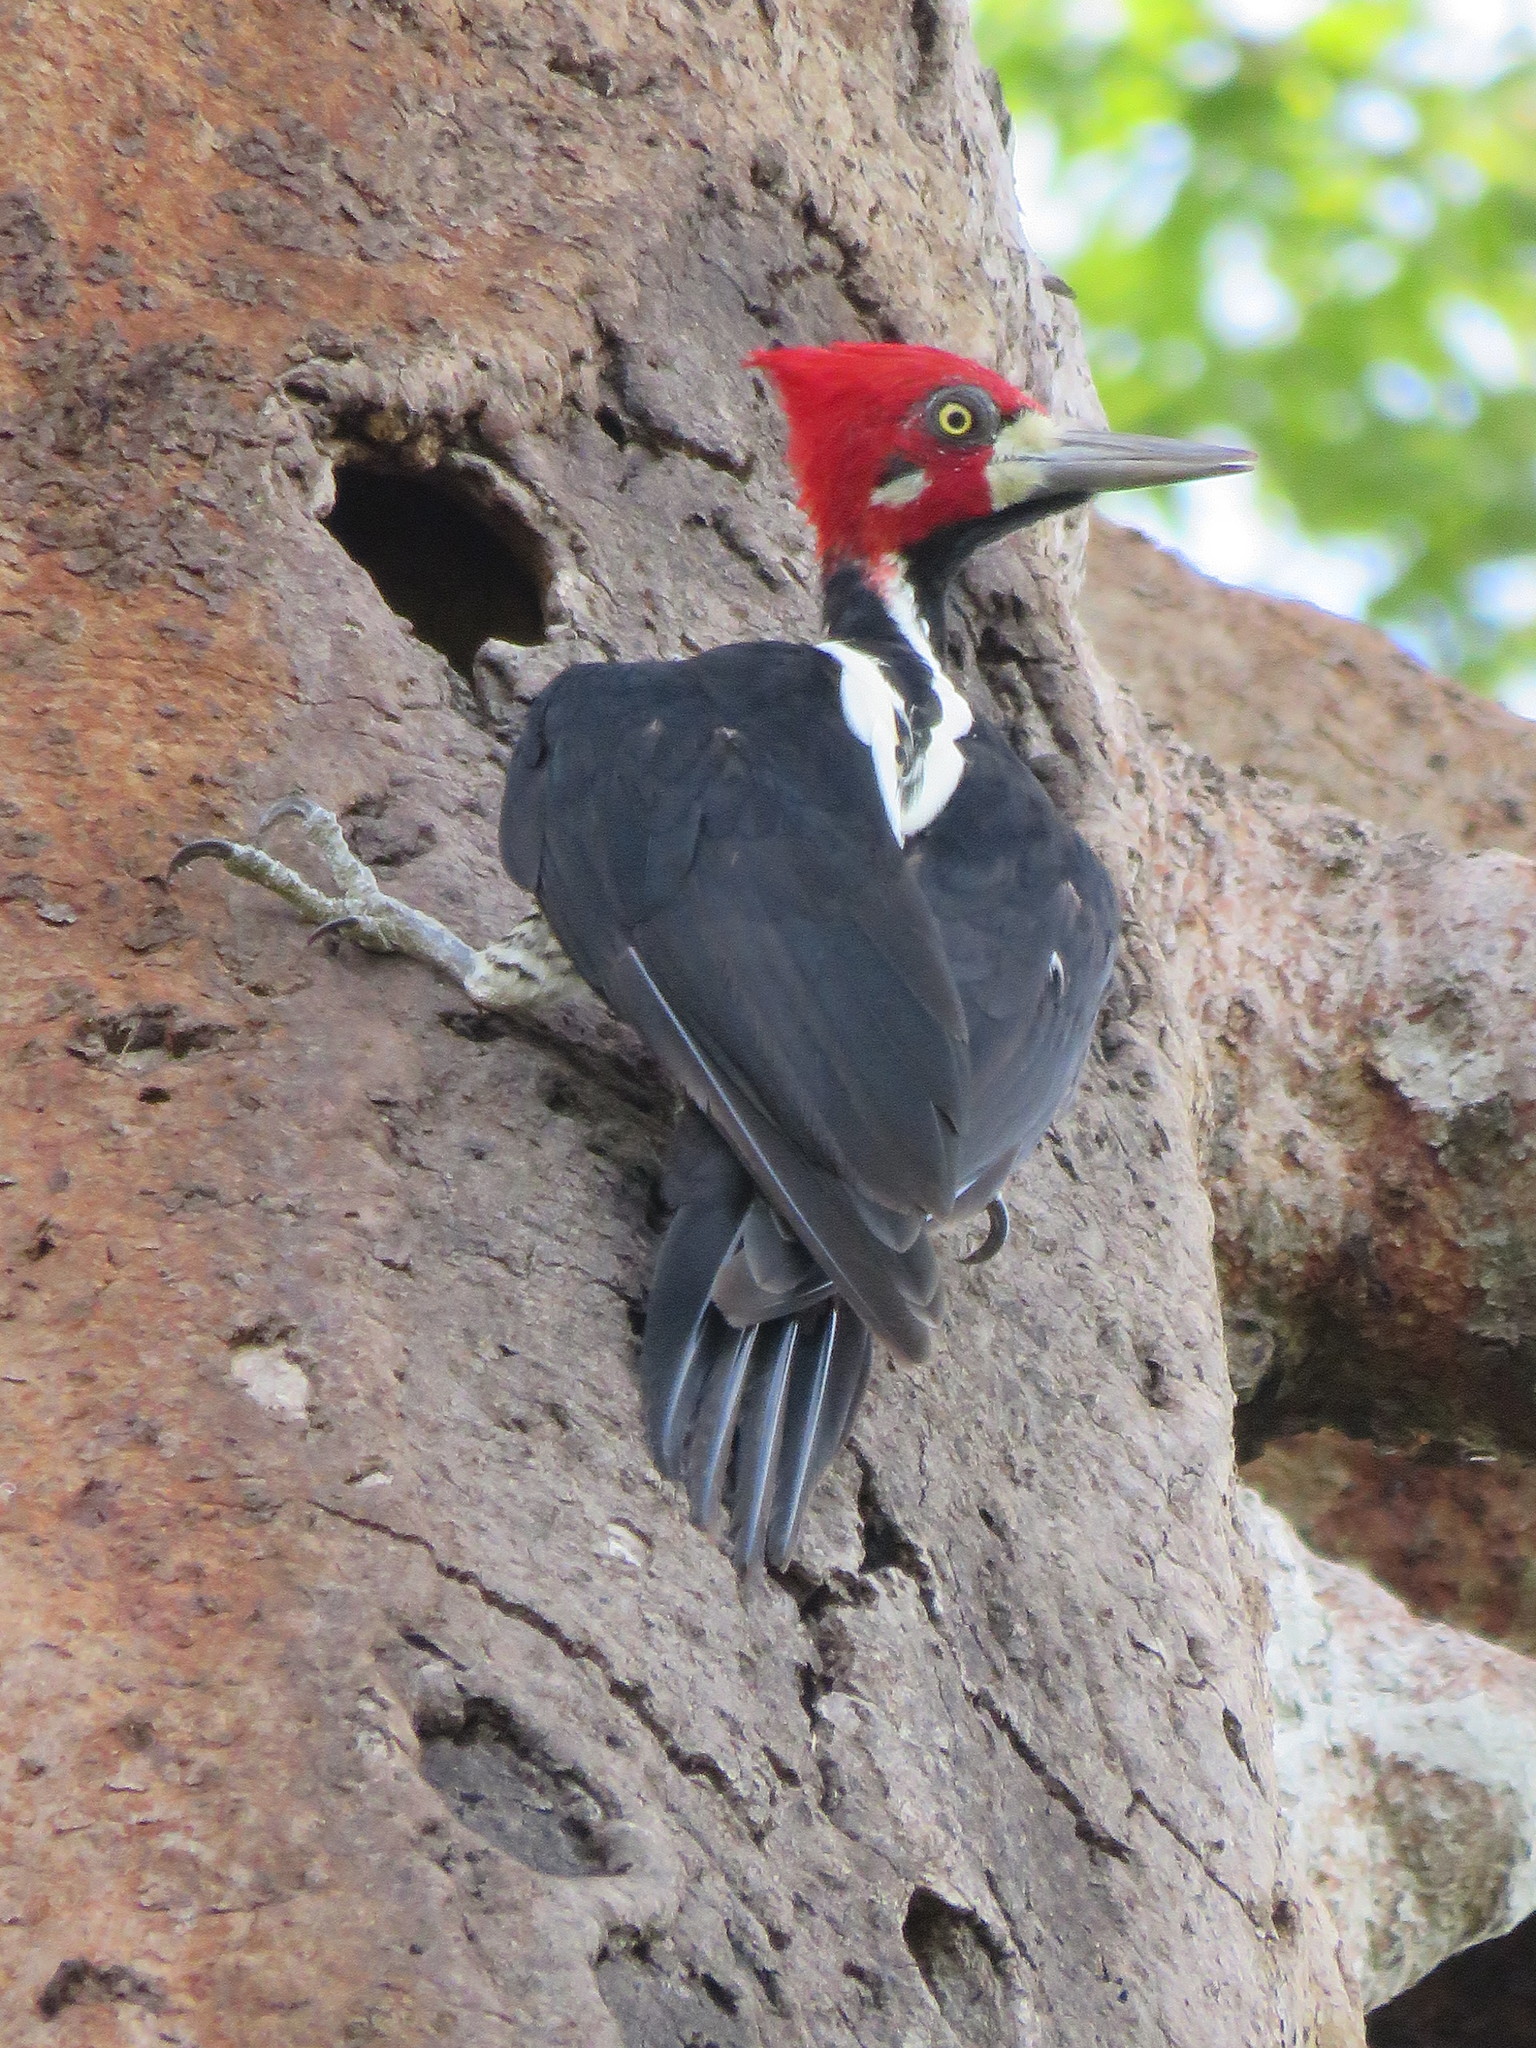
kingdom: Animalia
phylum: Chordata
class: Aves
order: Piciformes
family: Picidae
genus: Campephilus
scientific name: Campephilus melanoleucos
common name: Crimson-crested woodpecker
